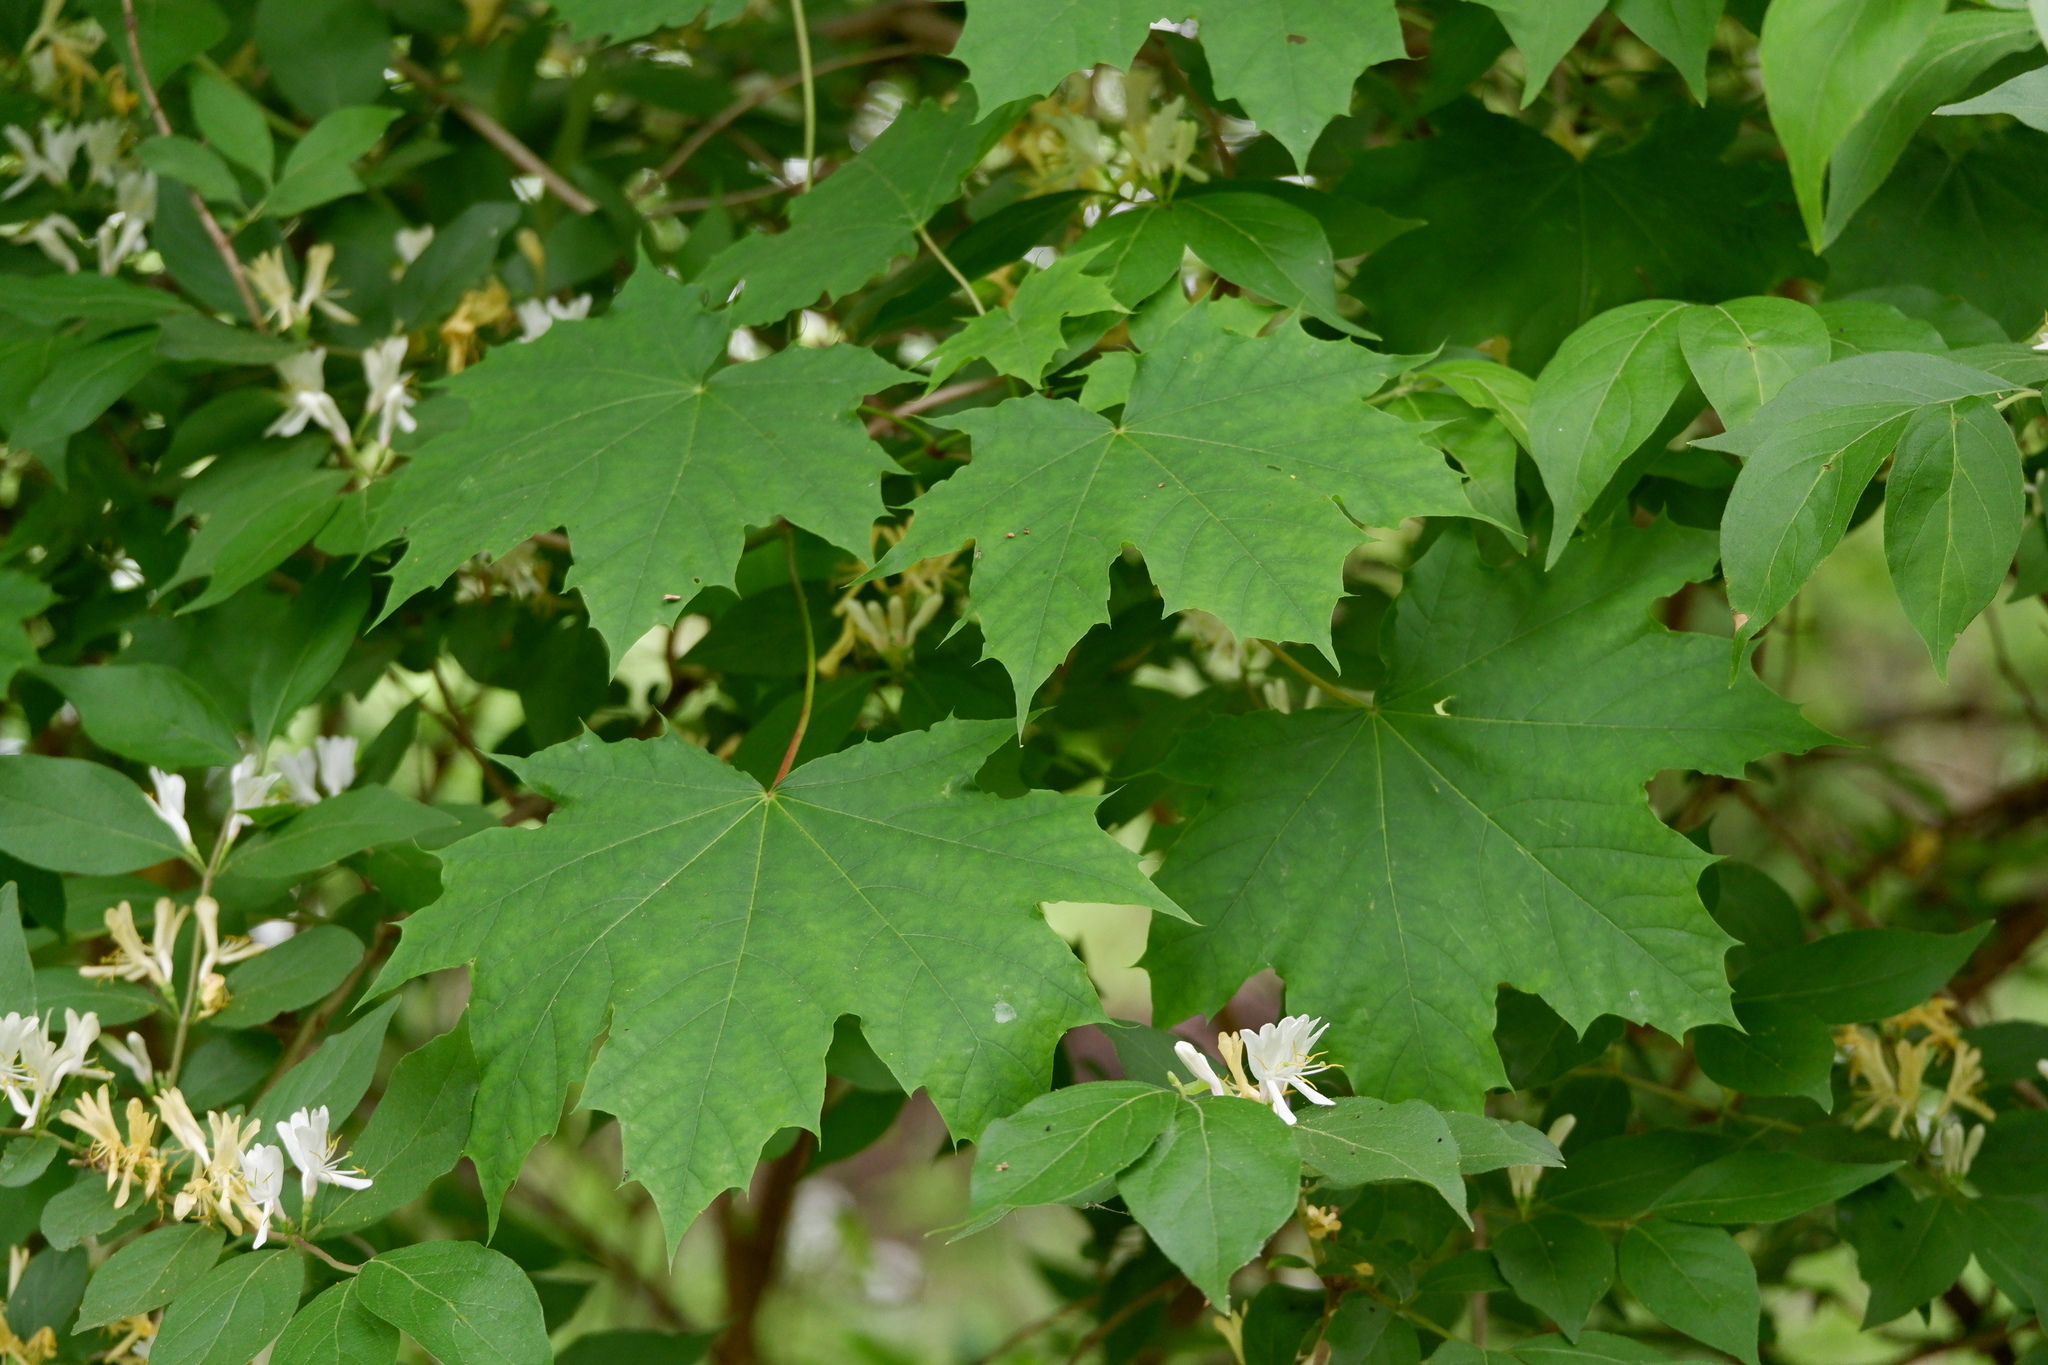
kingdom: Plantae
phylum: Tracheophyta
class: Magnoliopsida
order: Sapindales
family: Sapindaceae
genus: Acer
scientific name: Acer platanoides
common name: Norway maple
